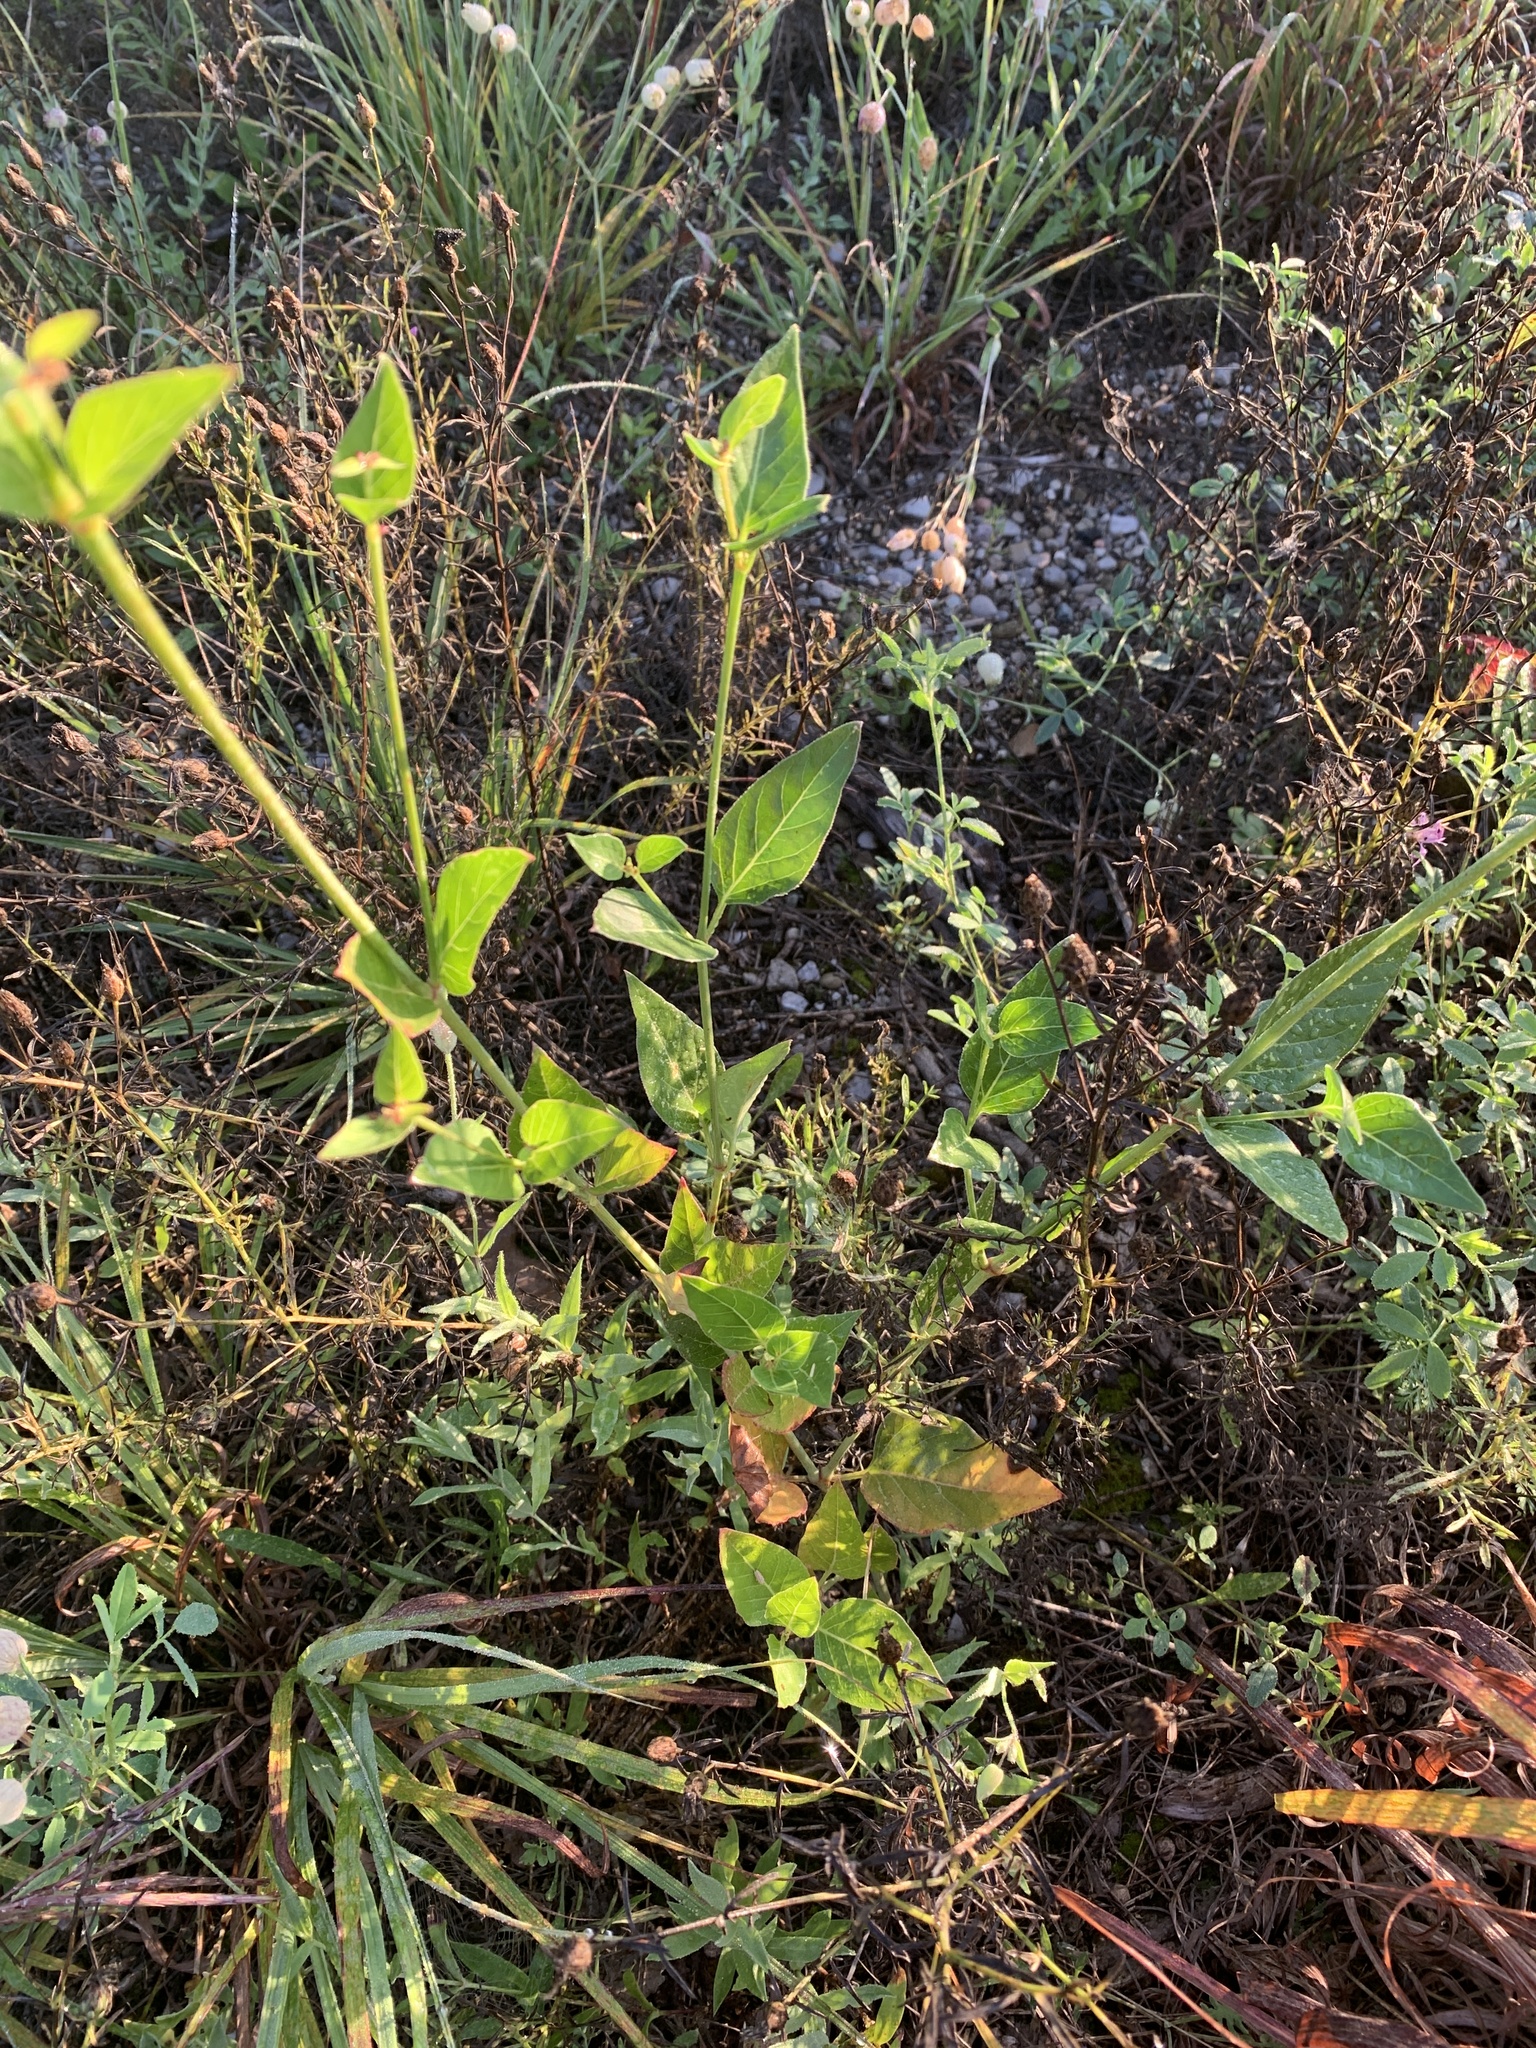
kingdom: Plantae
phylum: Tracheophyta
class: Magnoliopsida
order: Caryophyllales
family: Nyctaginaceae
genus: Mirabilis
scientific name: Mirabilis nyctaginea
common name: Umbrella wort
